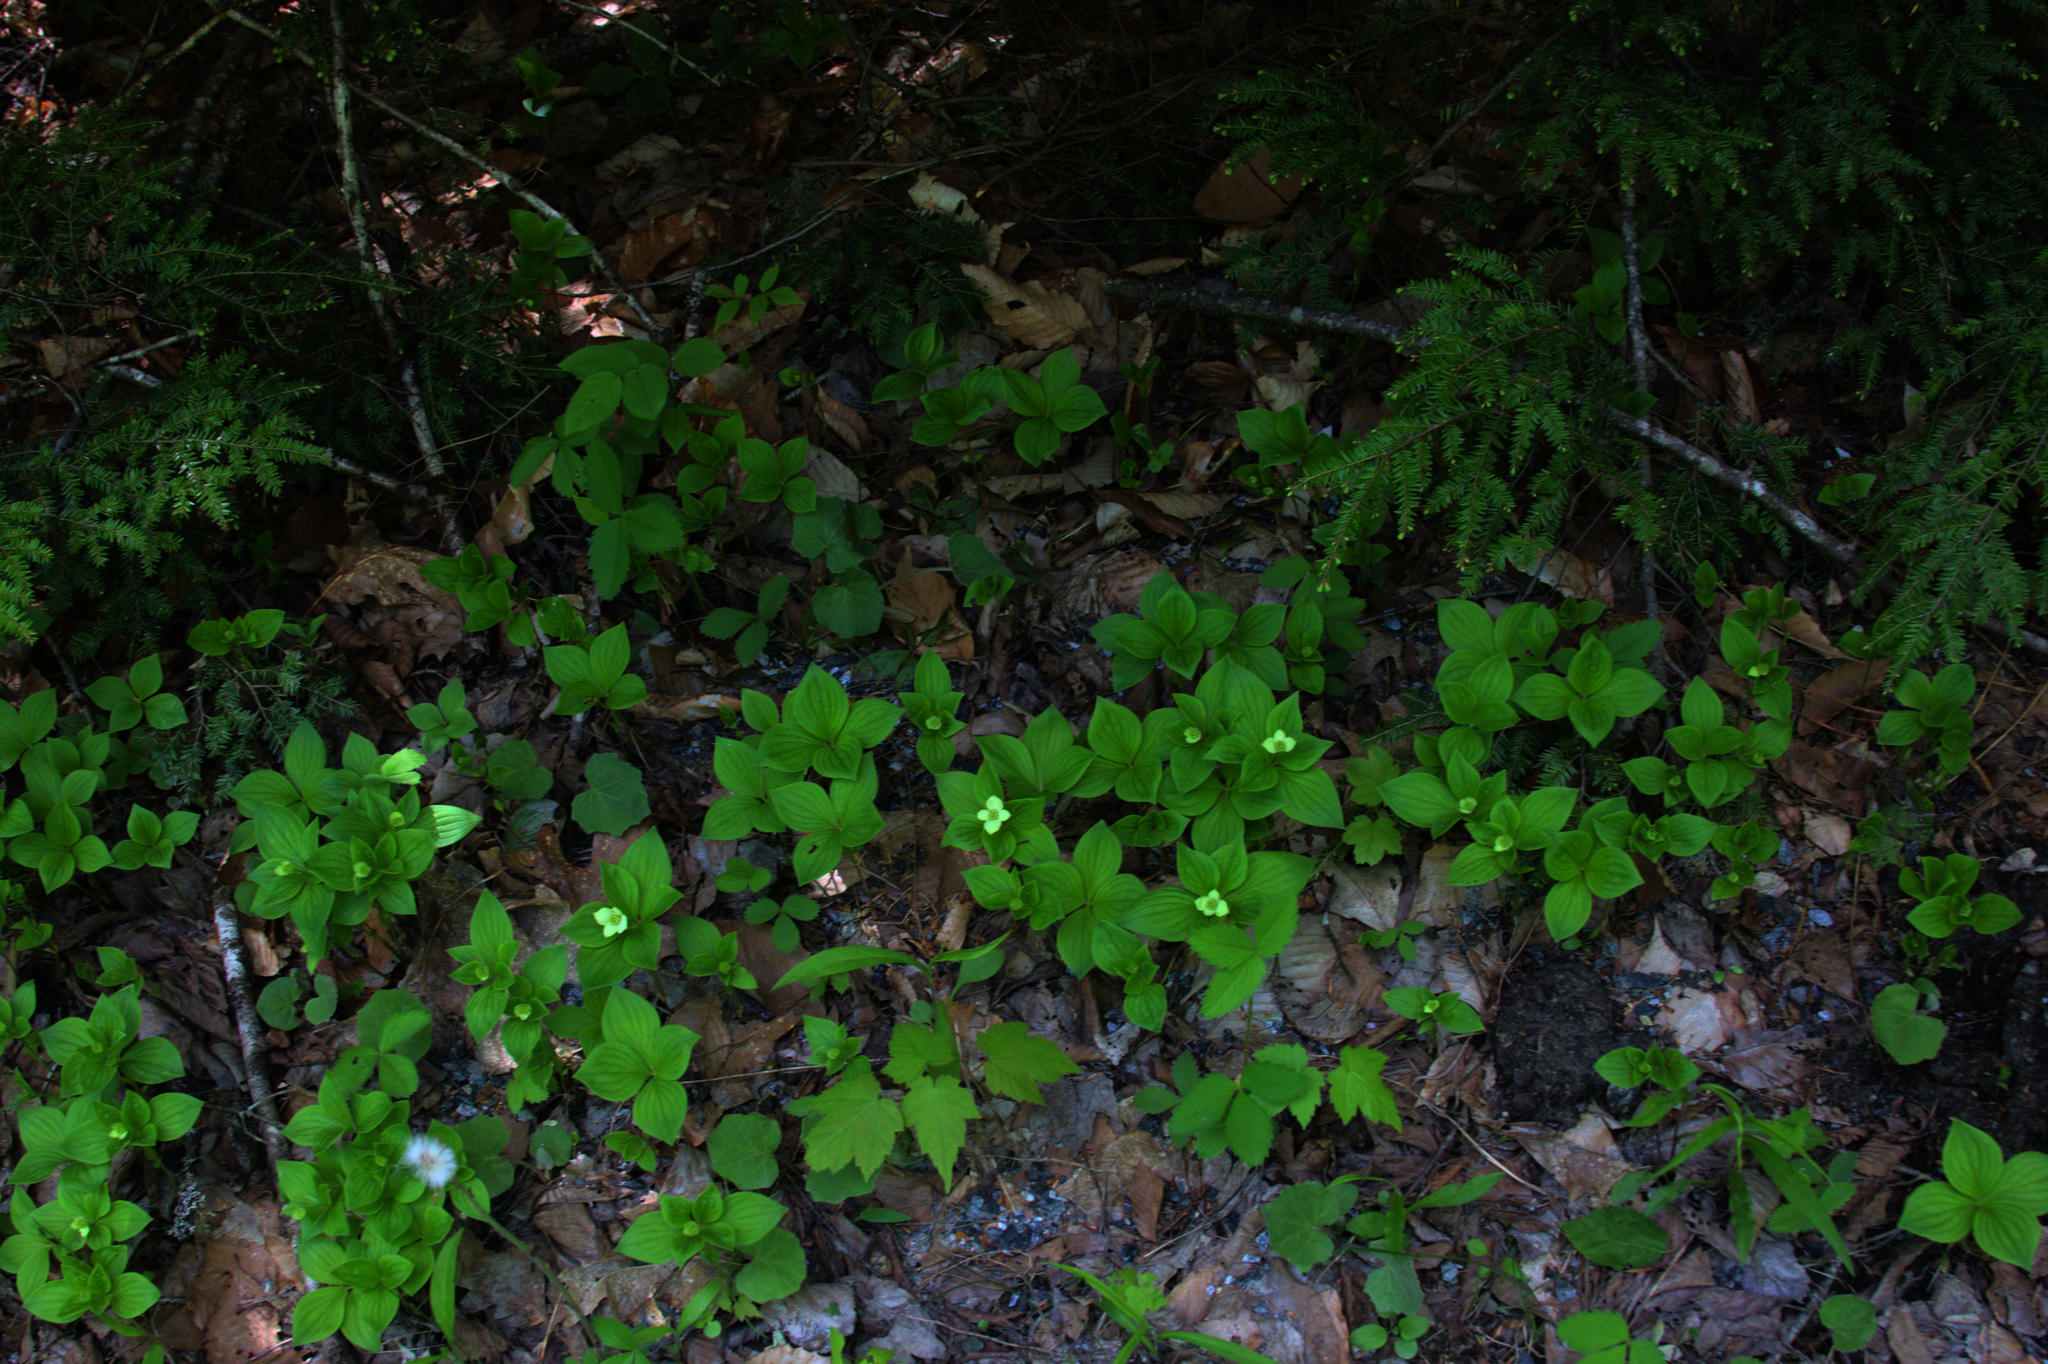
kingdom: Plantae
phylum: Tracheophyta
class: Pinopsida
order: Pinales
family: Pinaceae
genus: Tsuga
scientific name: Tsuga canadensis
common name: Eastern hemlock
